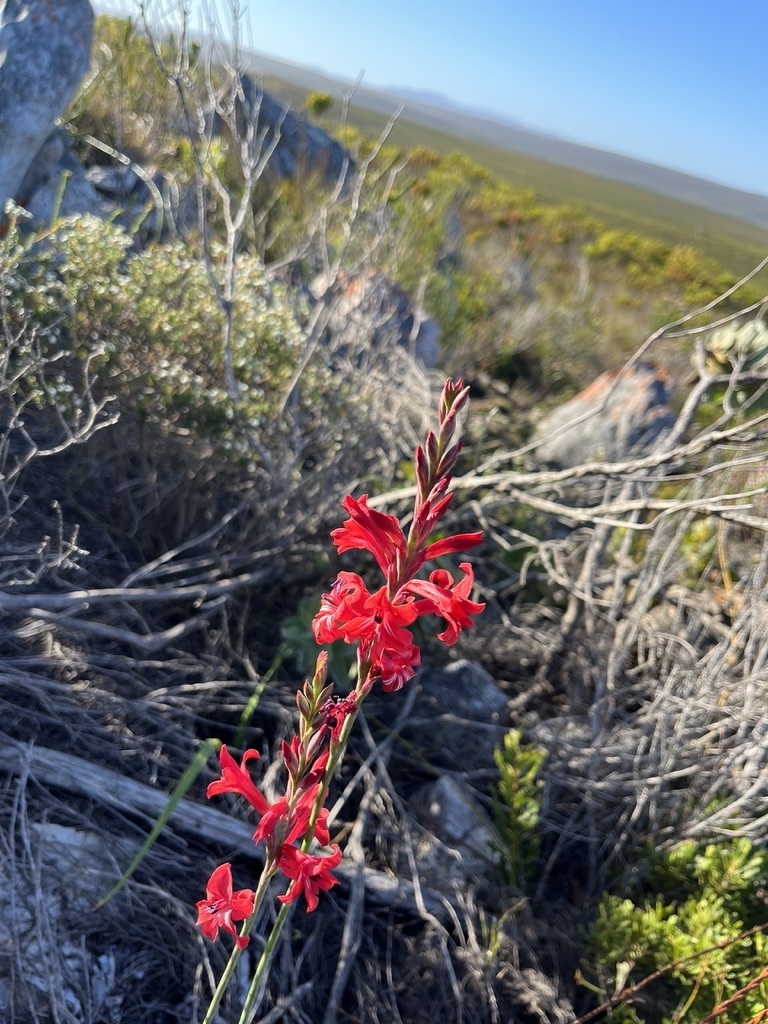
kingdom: Plantae
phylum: Tracheophyta
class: Liliopsida
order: Asparagales
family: Iridaceae
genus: Tritoniopsis
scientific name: Tritoniopsis pulchra
